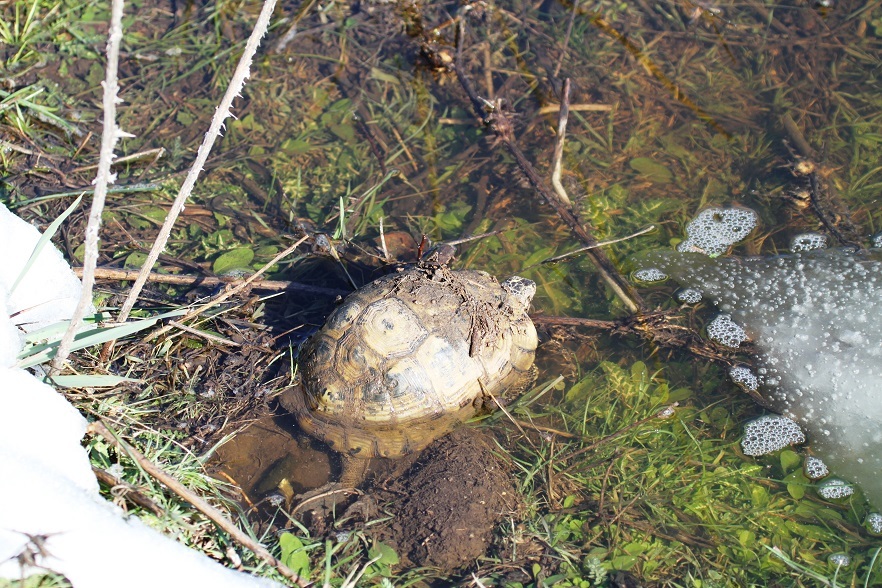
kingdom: Animalia
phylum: Chordata
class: Testudines
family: Testudinidae
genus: Testudo
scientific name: Testudo graeca
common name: Common tortoise
